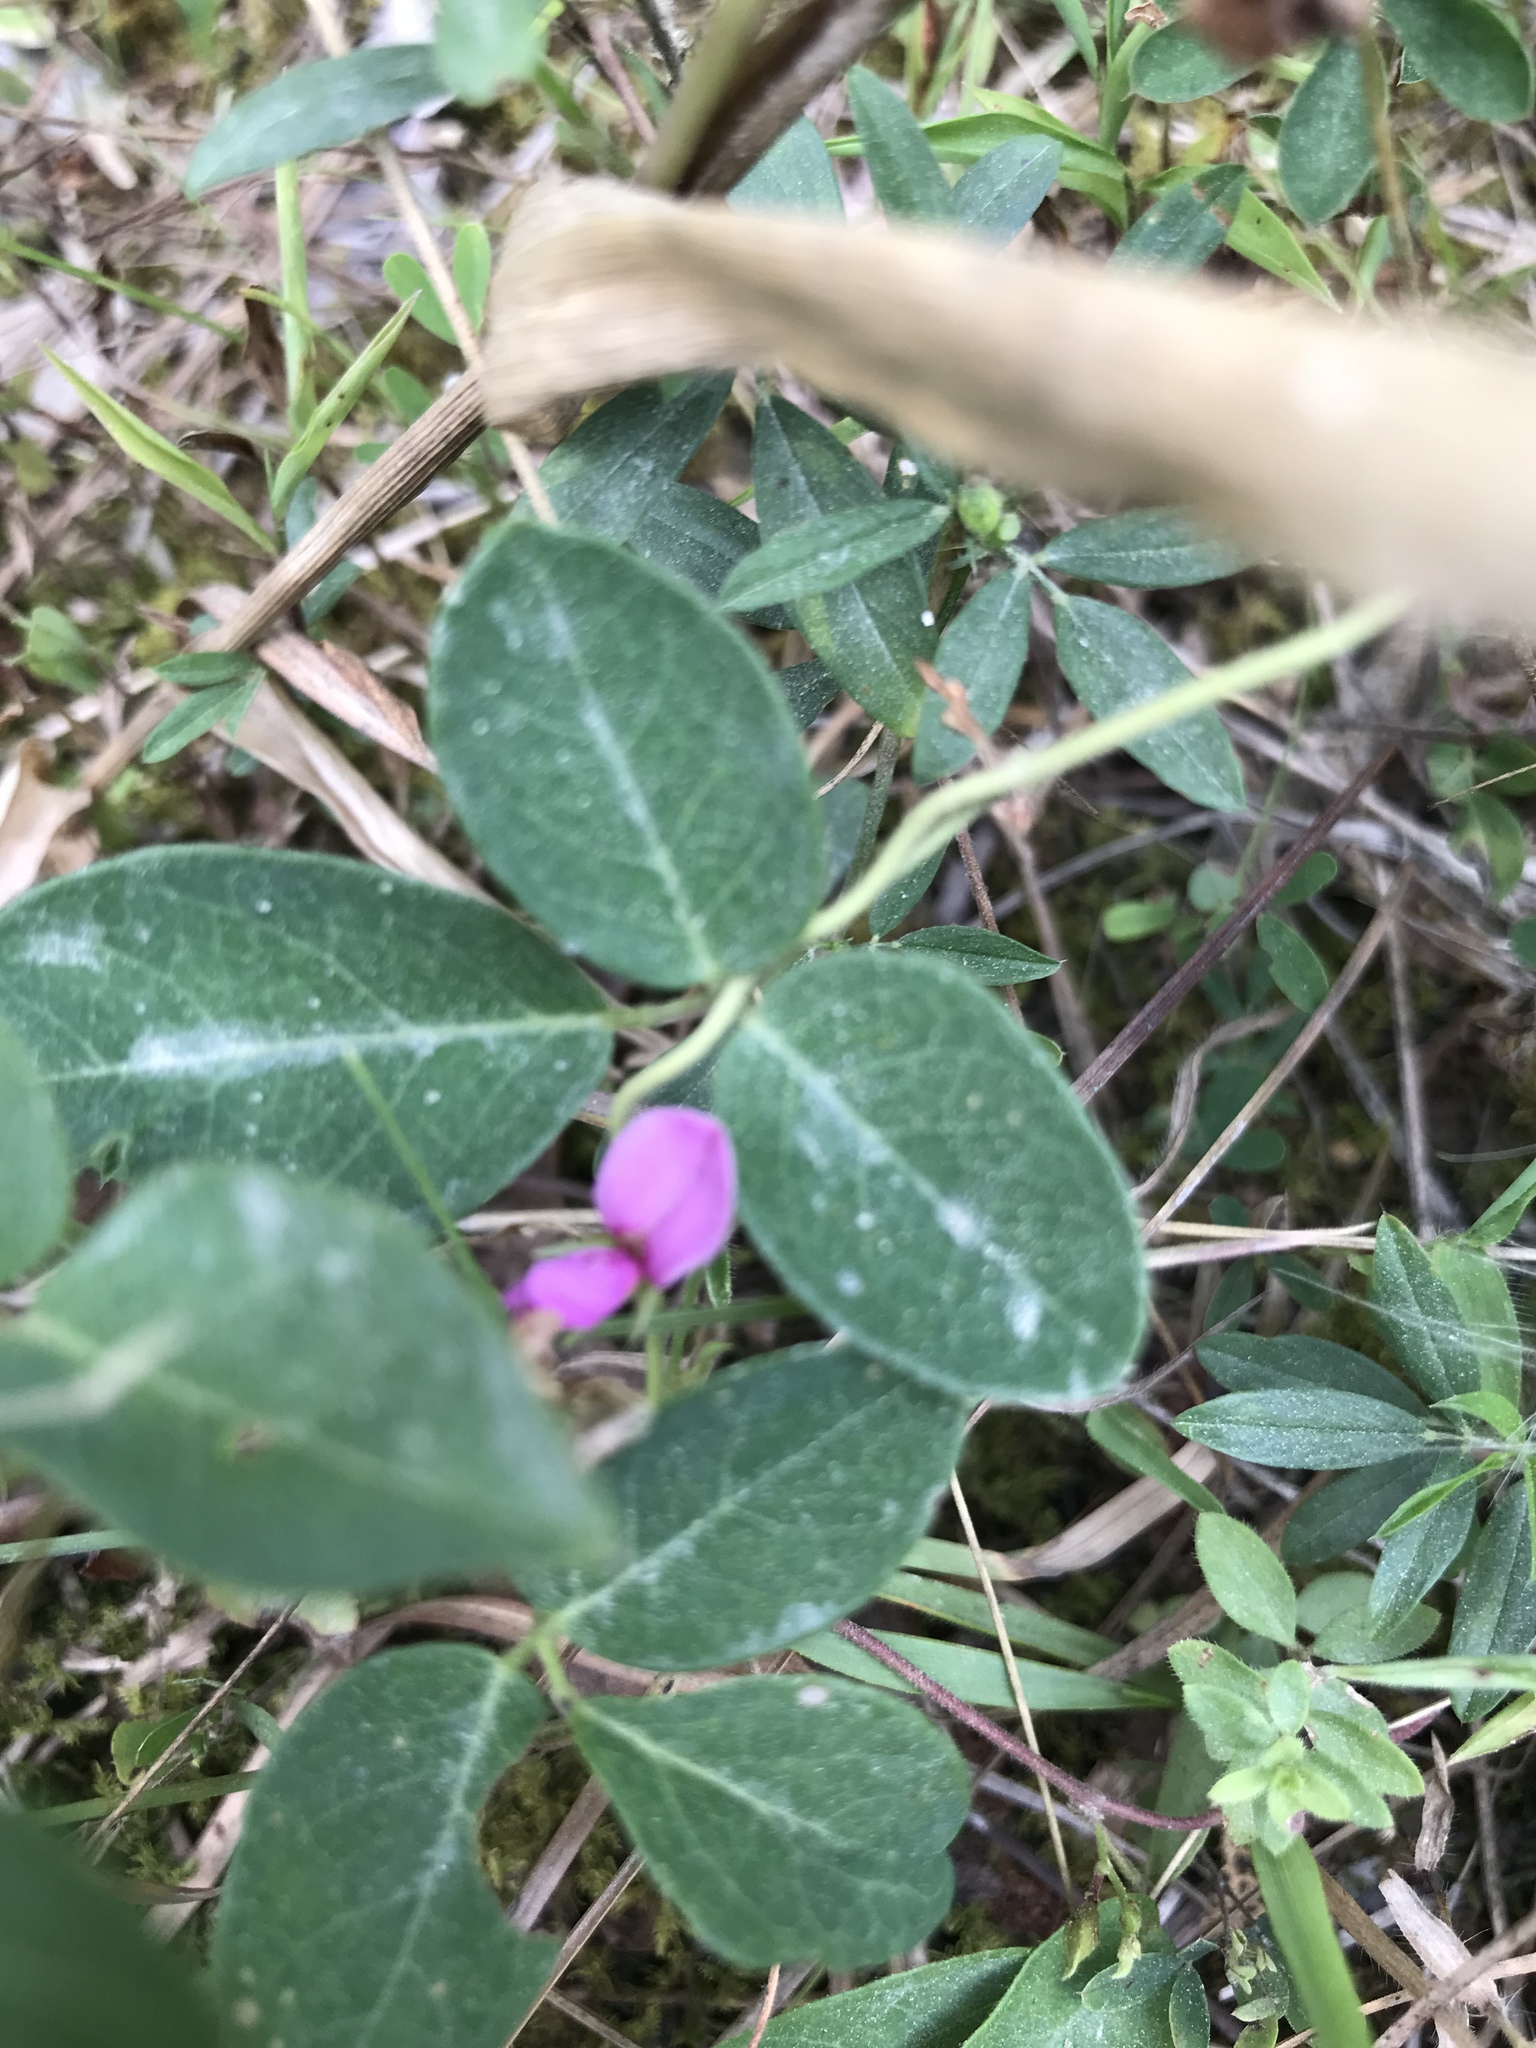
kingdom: Plantae
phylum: Tracheophyta
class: Magnoliopsida
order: Fabales
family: Fabaceae
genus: Galactia
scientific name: Galactia regularis
